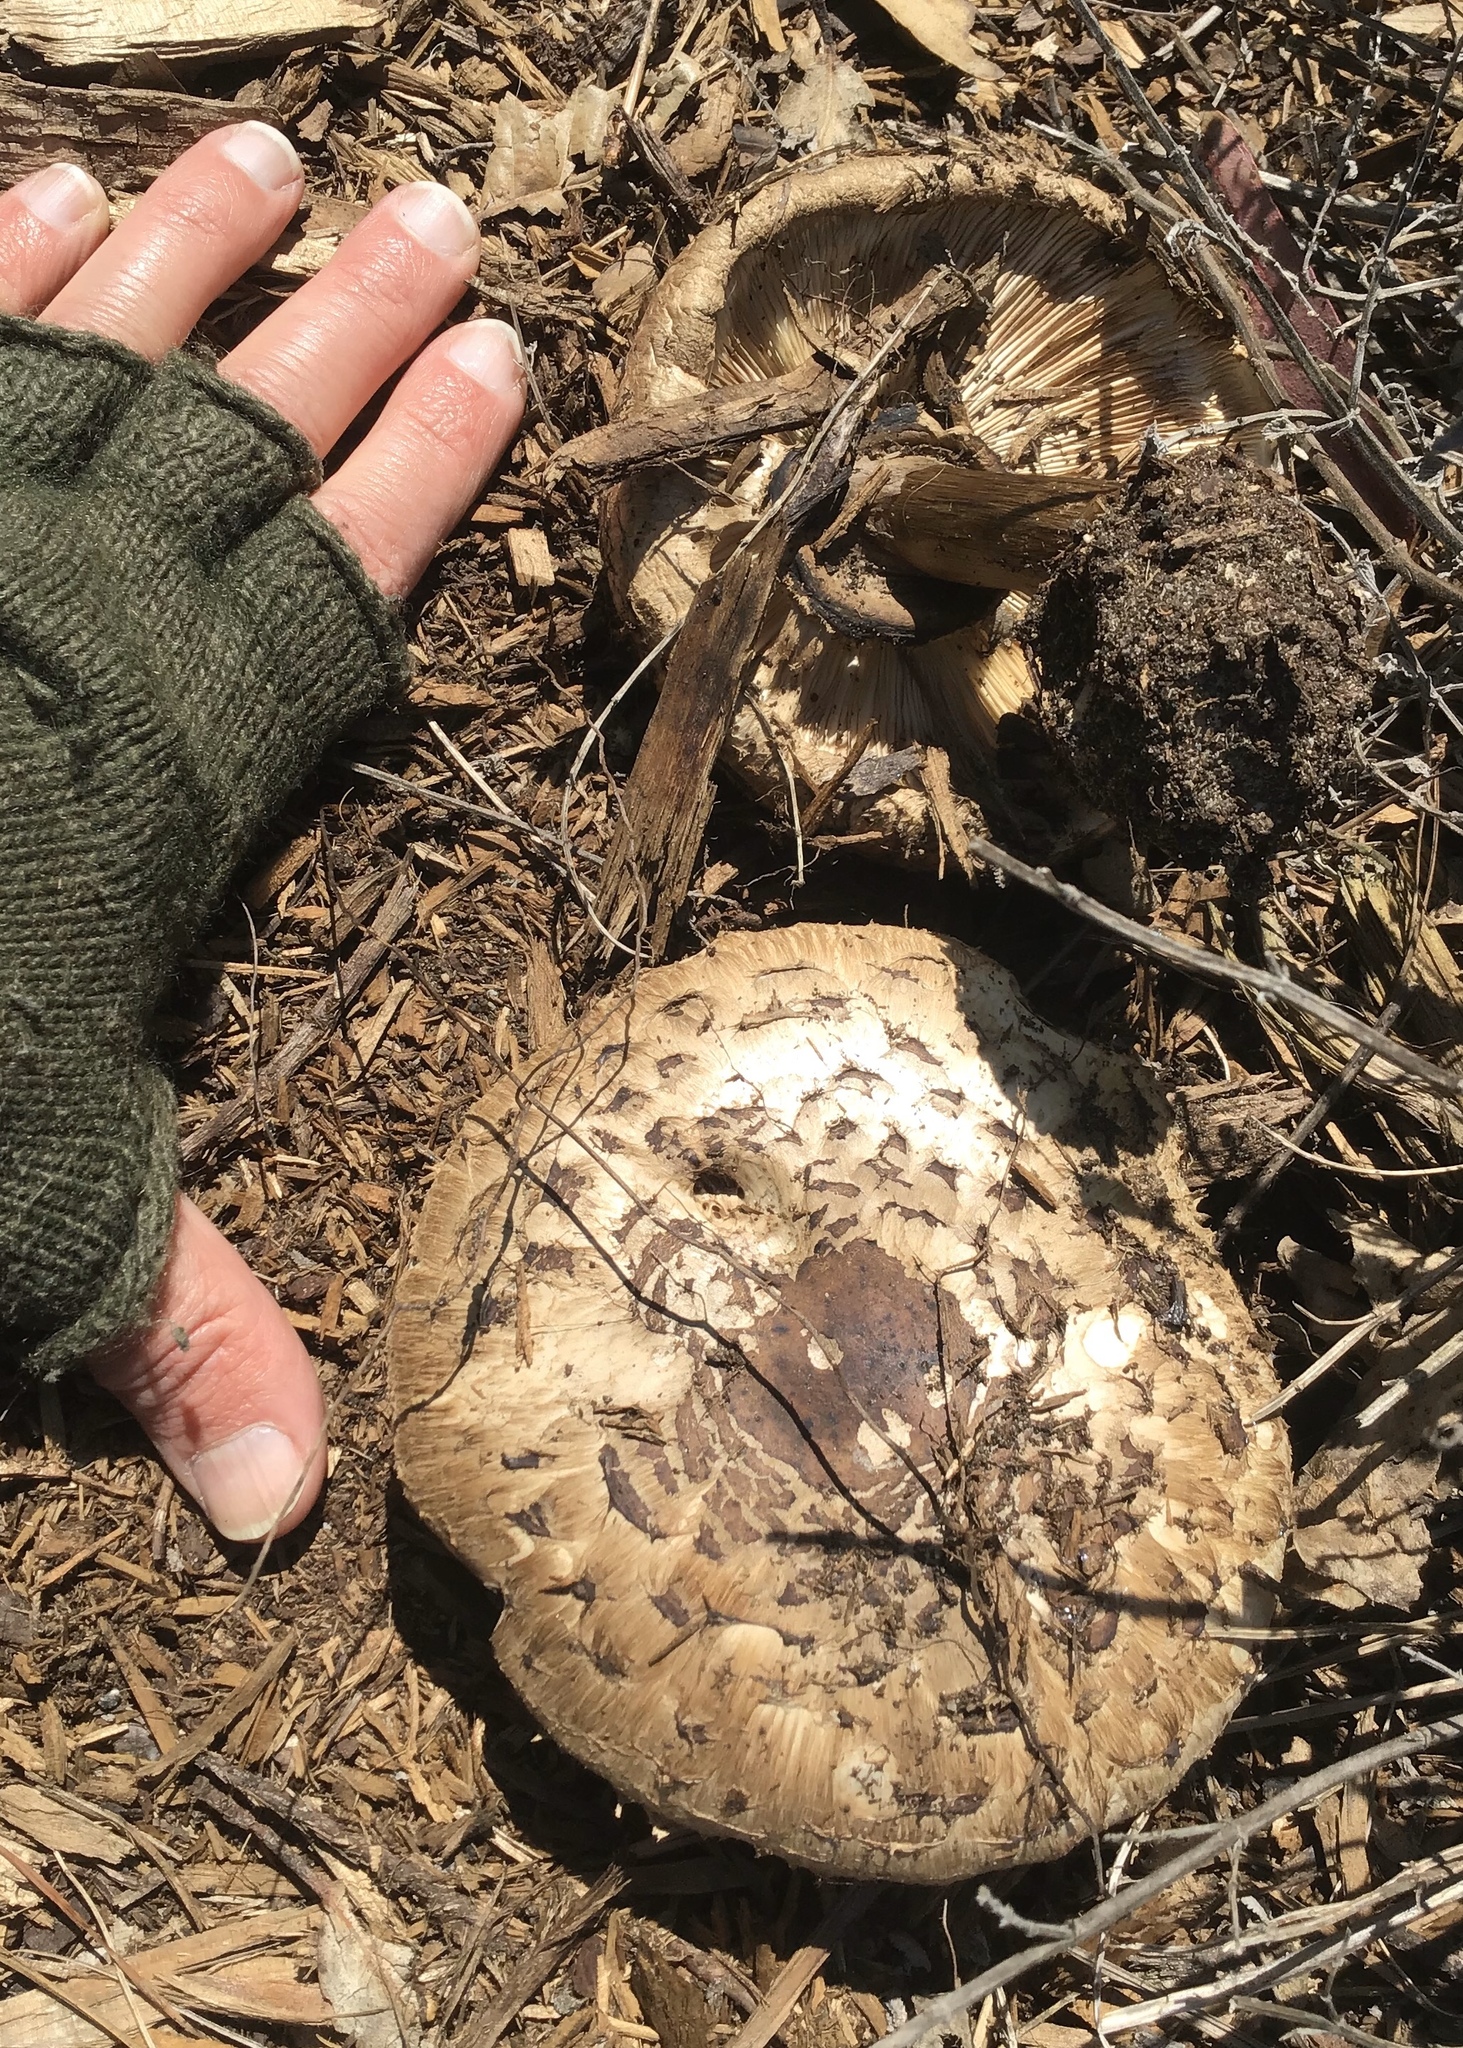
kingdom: Fungi
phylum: Basidiomycota
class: Agaricomycetes
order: Agaricales
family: Agaricaceae
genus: Chlorophyllum
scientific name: Chlorophyllum brunneum
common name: Brown parasol
